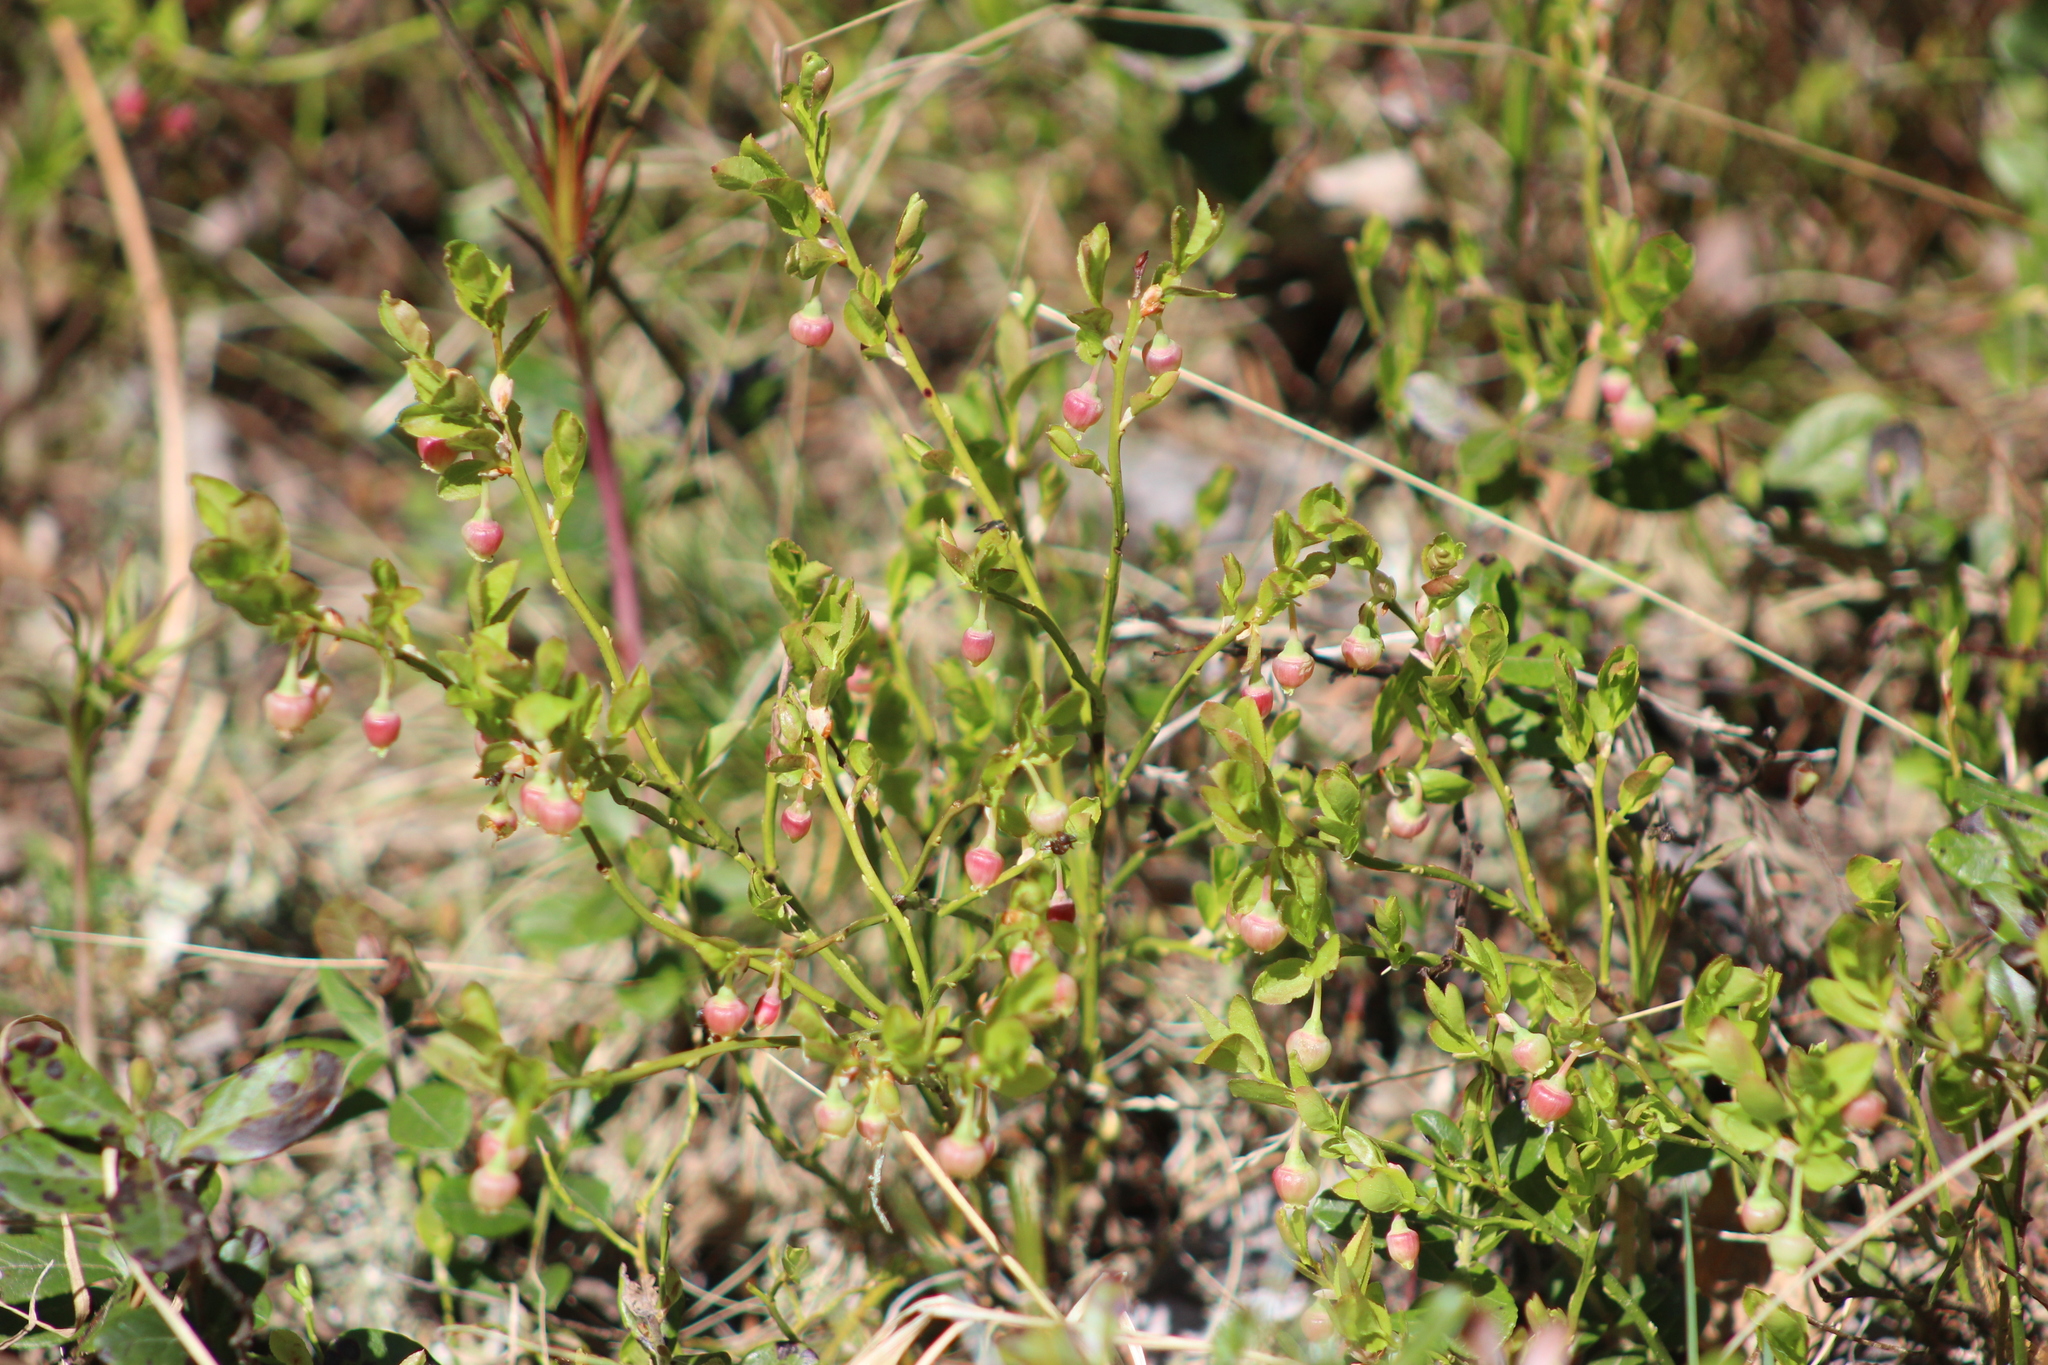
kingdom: Plantae
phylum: Tracheophyta
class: Magnoliopsida
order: Ericales
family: Ericaceae
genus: Vaccinium
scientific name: Vaccinium myrtillus
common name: Bilberry
